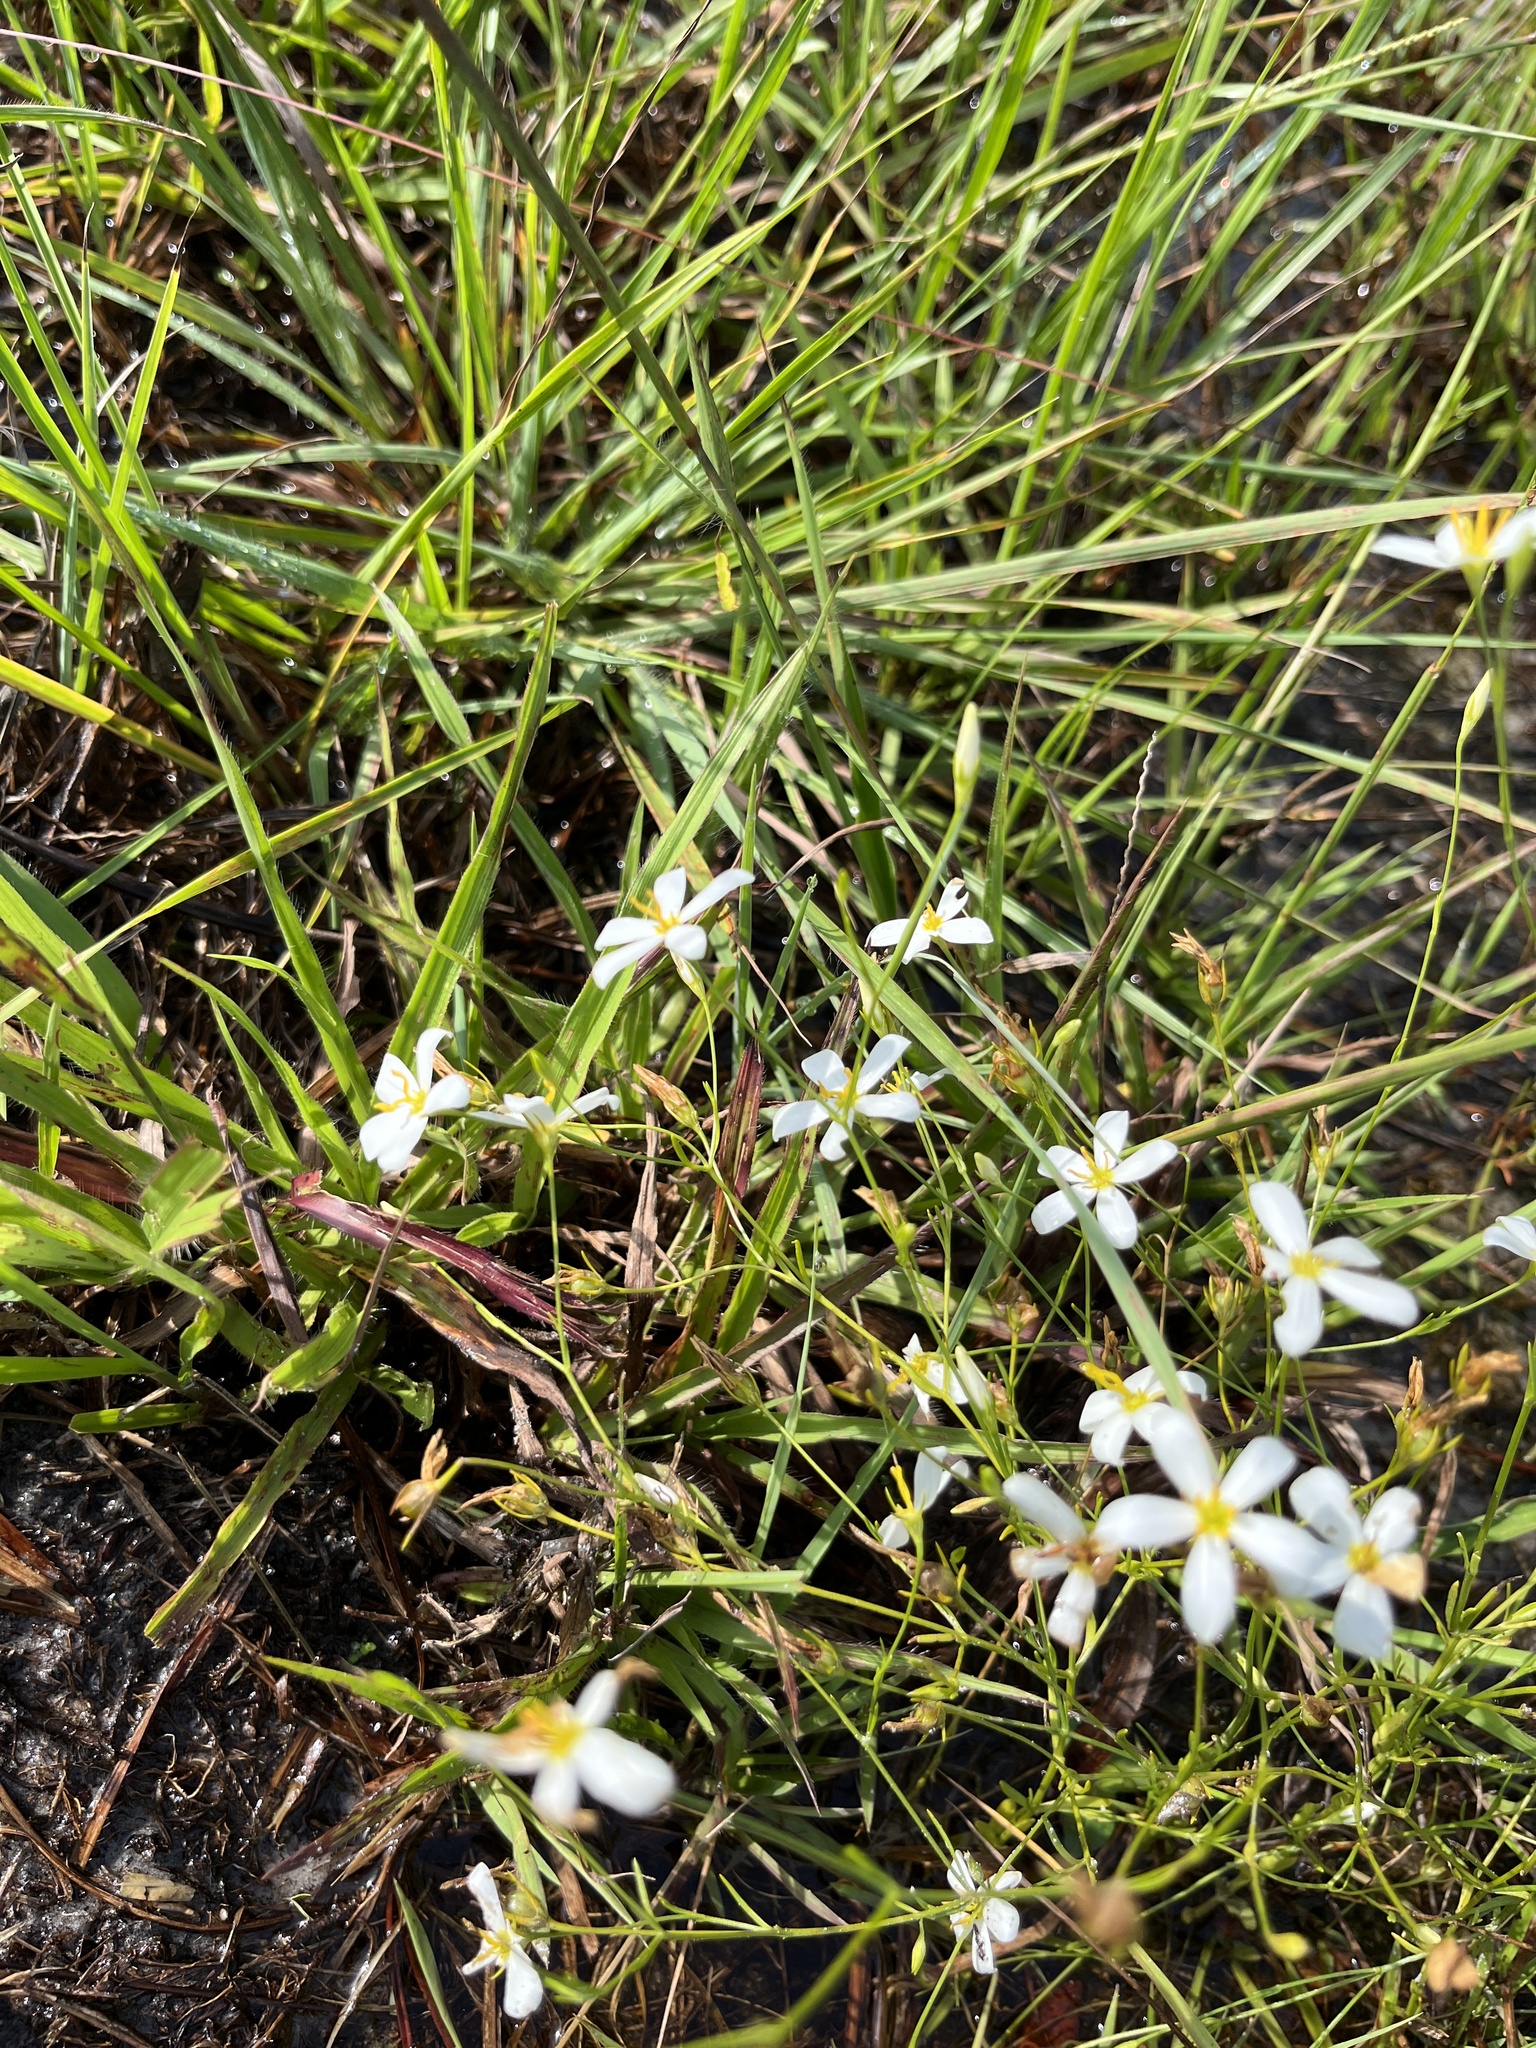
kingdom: Plantae
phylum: Tracheophyta
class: Magnoliopsida
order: Gentianales
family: Gentianaceae
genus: Sabatia
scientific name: Sabatia brevifolia
